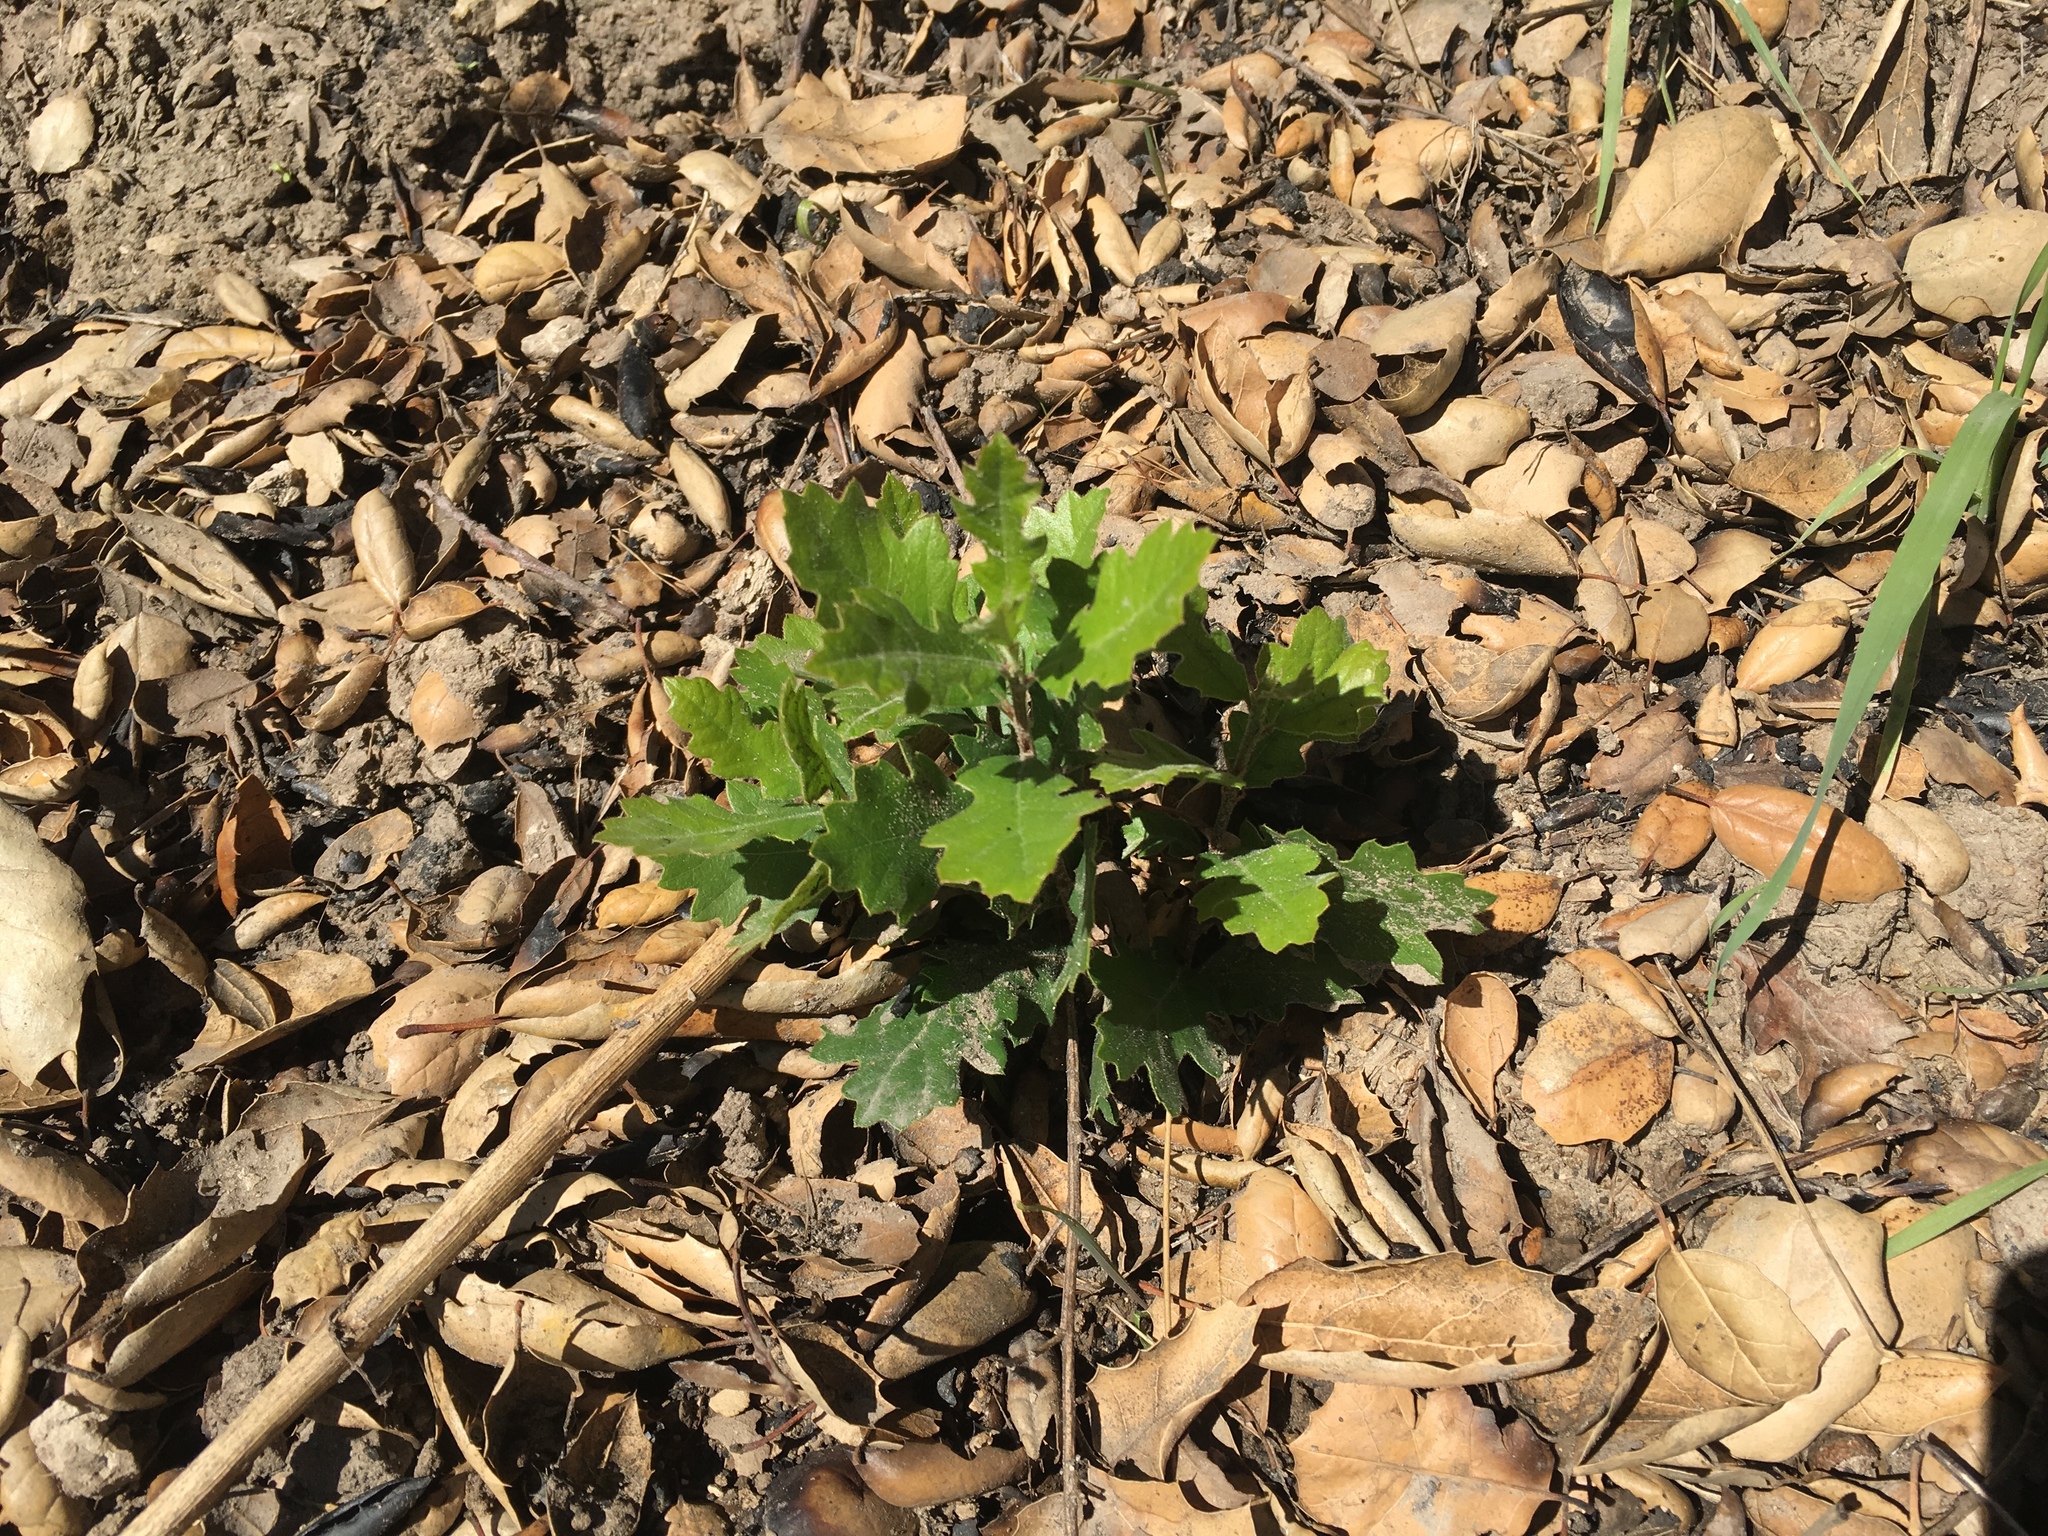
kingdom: Plantae
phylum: Tracheophyta
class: Magnoliopsida
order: Fagales
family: Fagaceae
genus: Quercus
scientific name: Quercus lobata
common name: Valley oak
